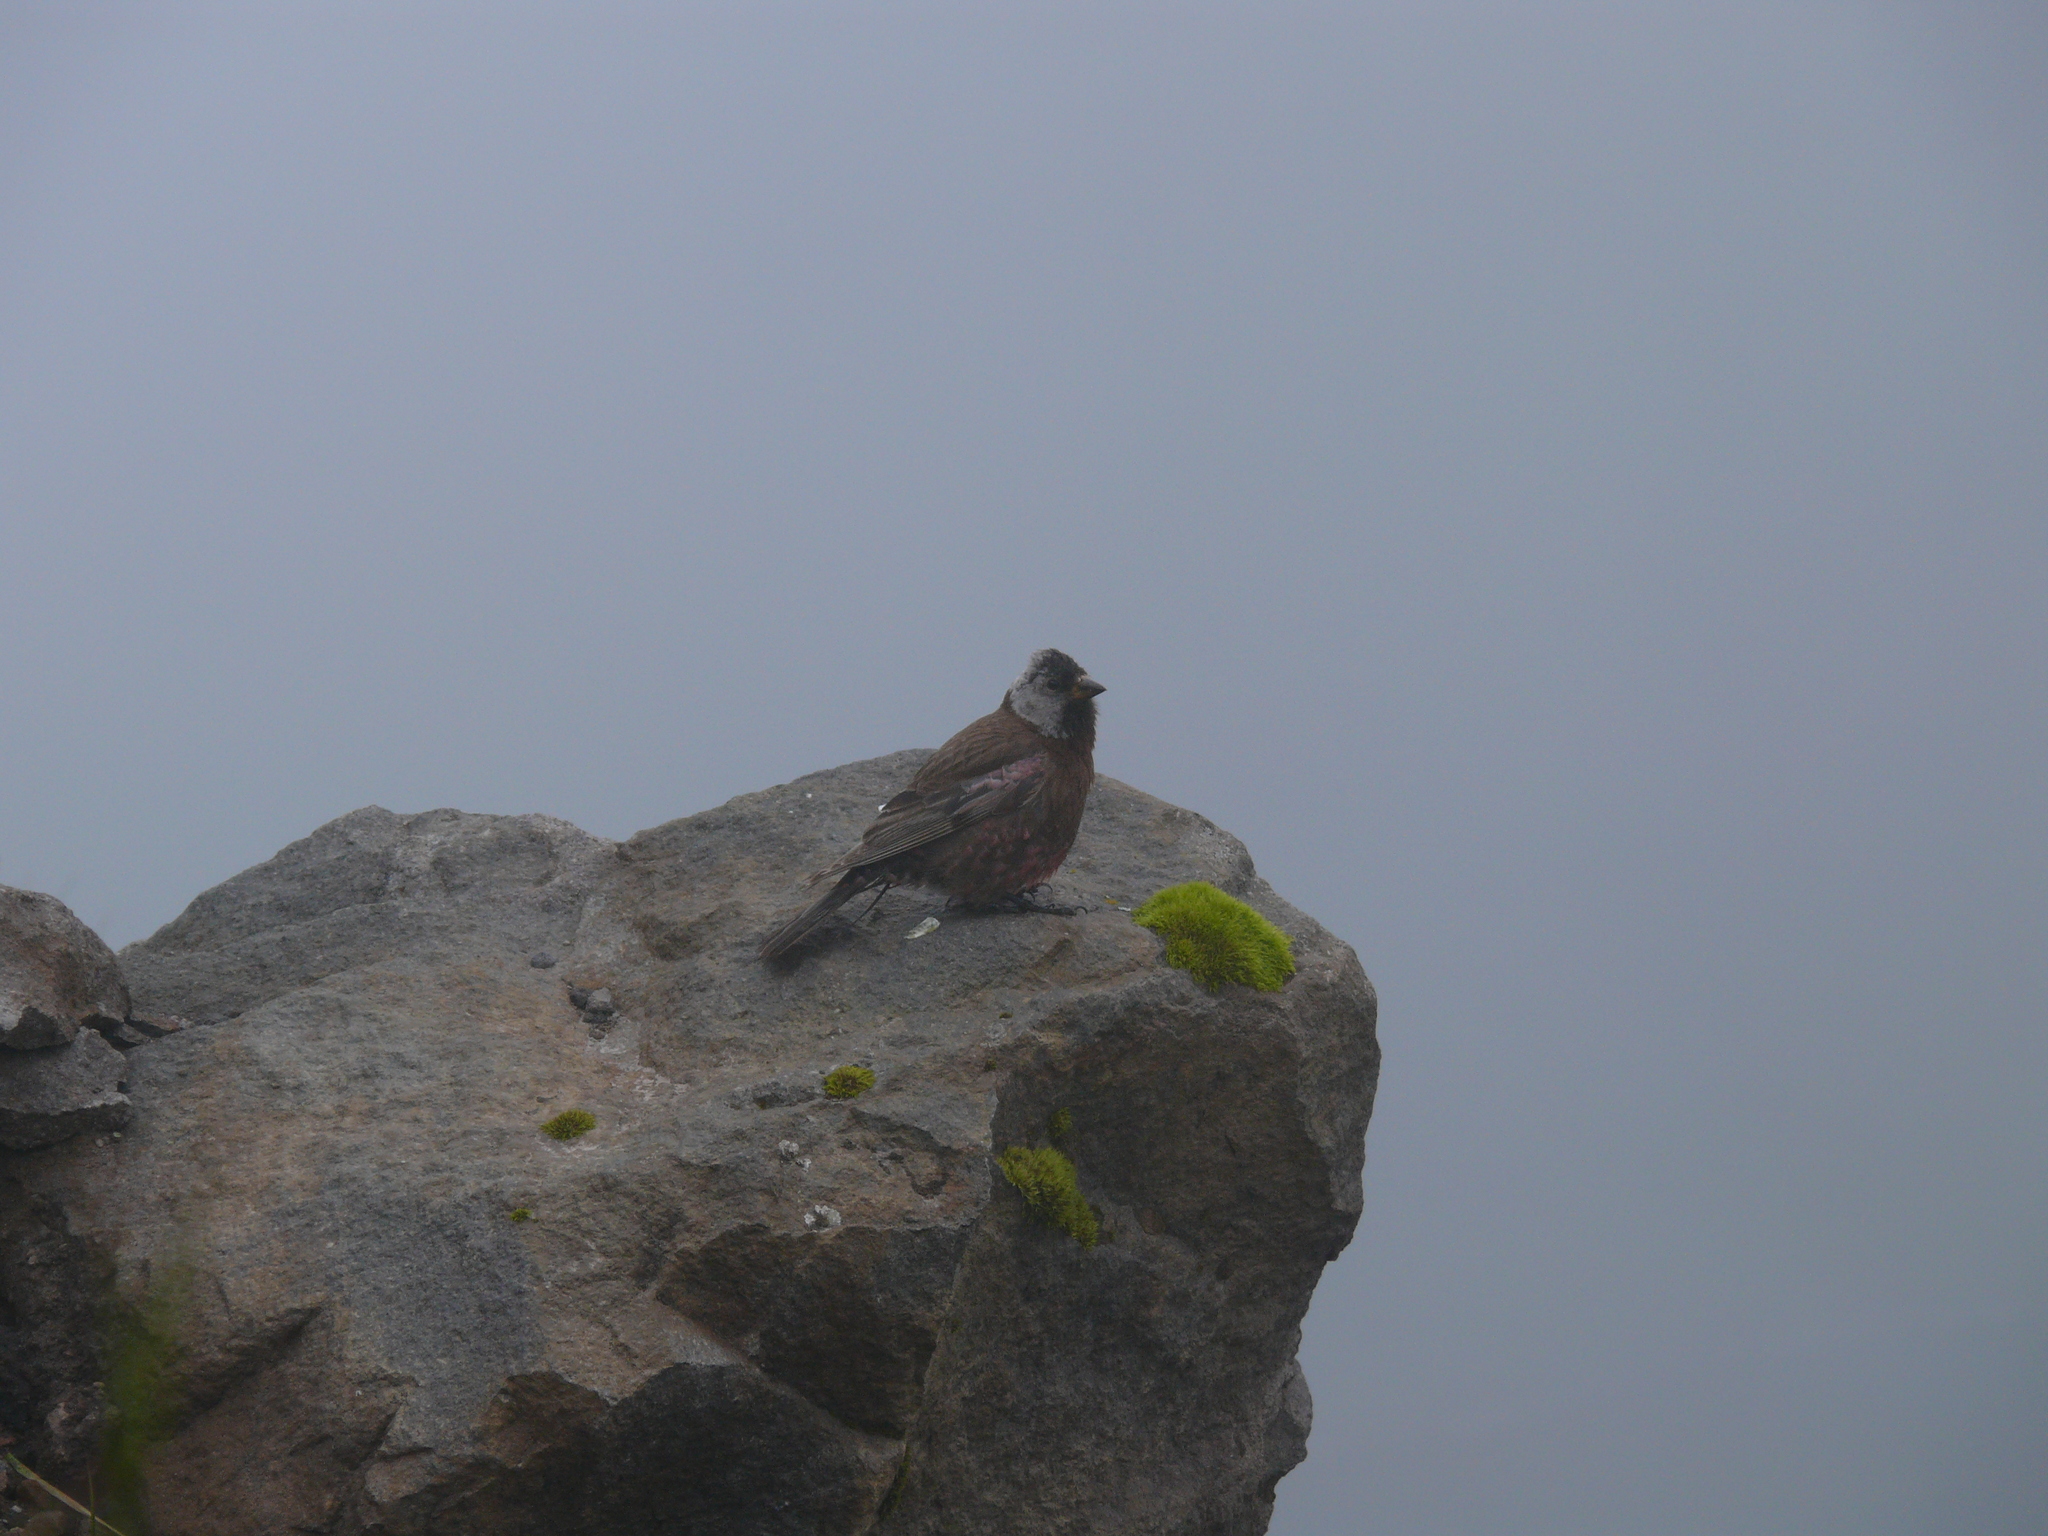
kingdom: Animalia
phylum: Chordata
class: Aves
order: Passeriformes
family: Fringillidae
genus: Leucosticte
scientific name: Leucosticte tephrocotis
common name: Gray-crowned rosy-finch
